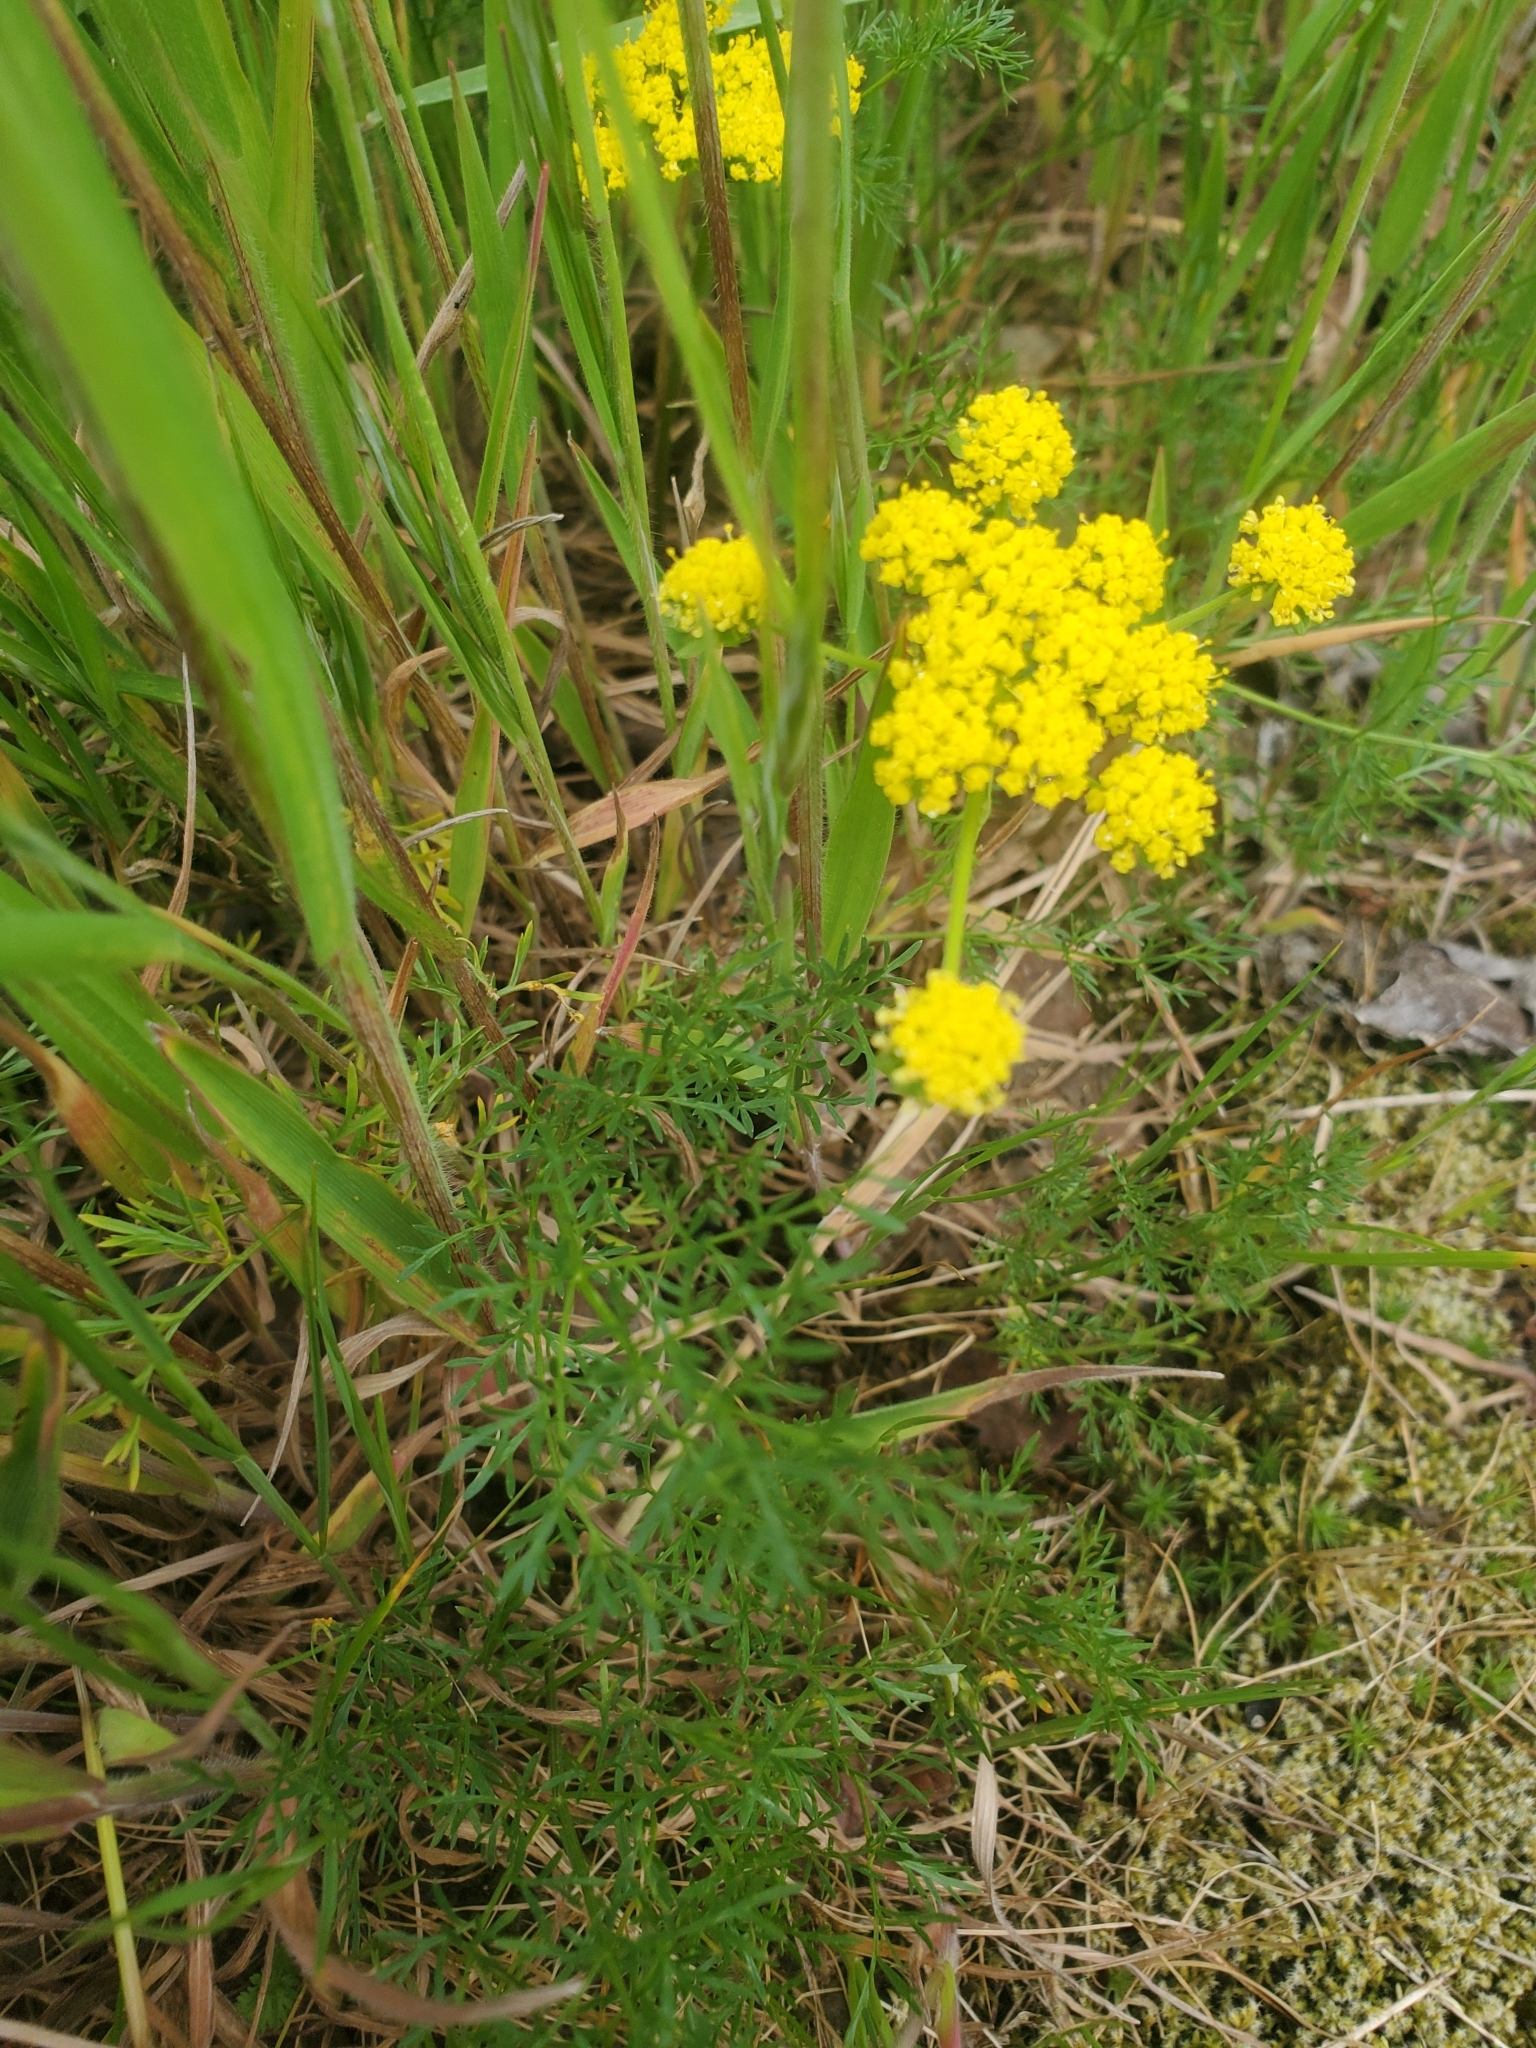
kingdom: Plantae
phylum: Tracheophyta
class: Magnoliopsida
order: Apiales
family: Apiaceae
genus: Lomatium
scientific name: Lomatium utriculatum
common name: Fine-leaf desert-parsley
